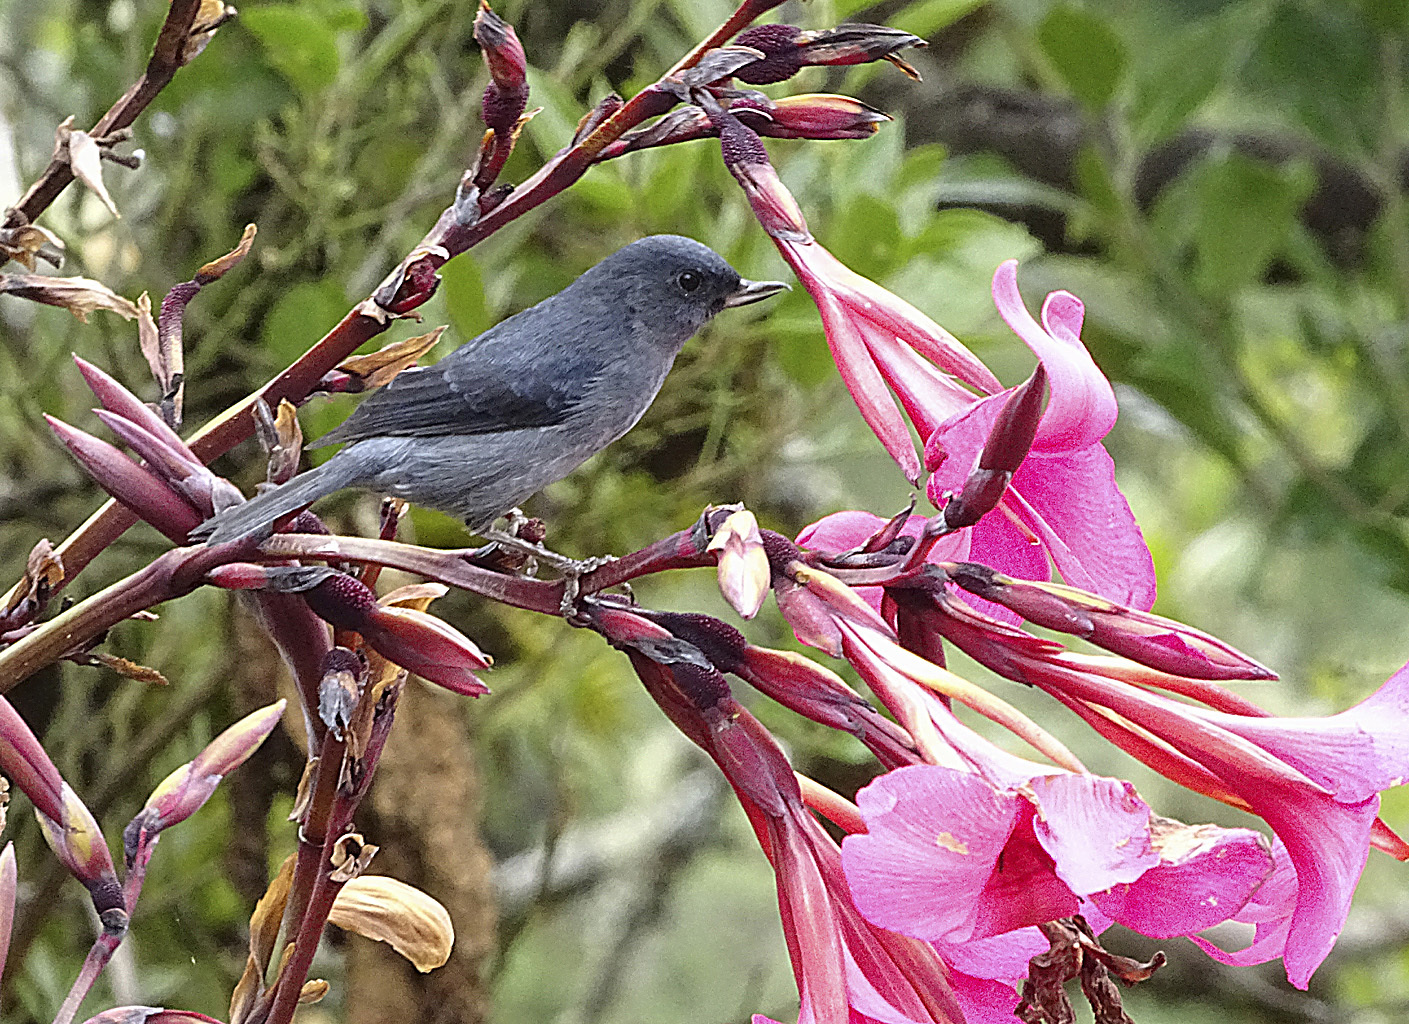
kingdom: Animalia
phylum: Chordata
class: Aves
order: Passeriformes
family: Thraupidae
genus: Diglossa
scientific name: Diglossa plumbea
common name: Slaty flowerpiercer
